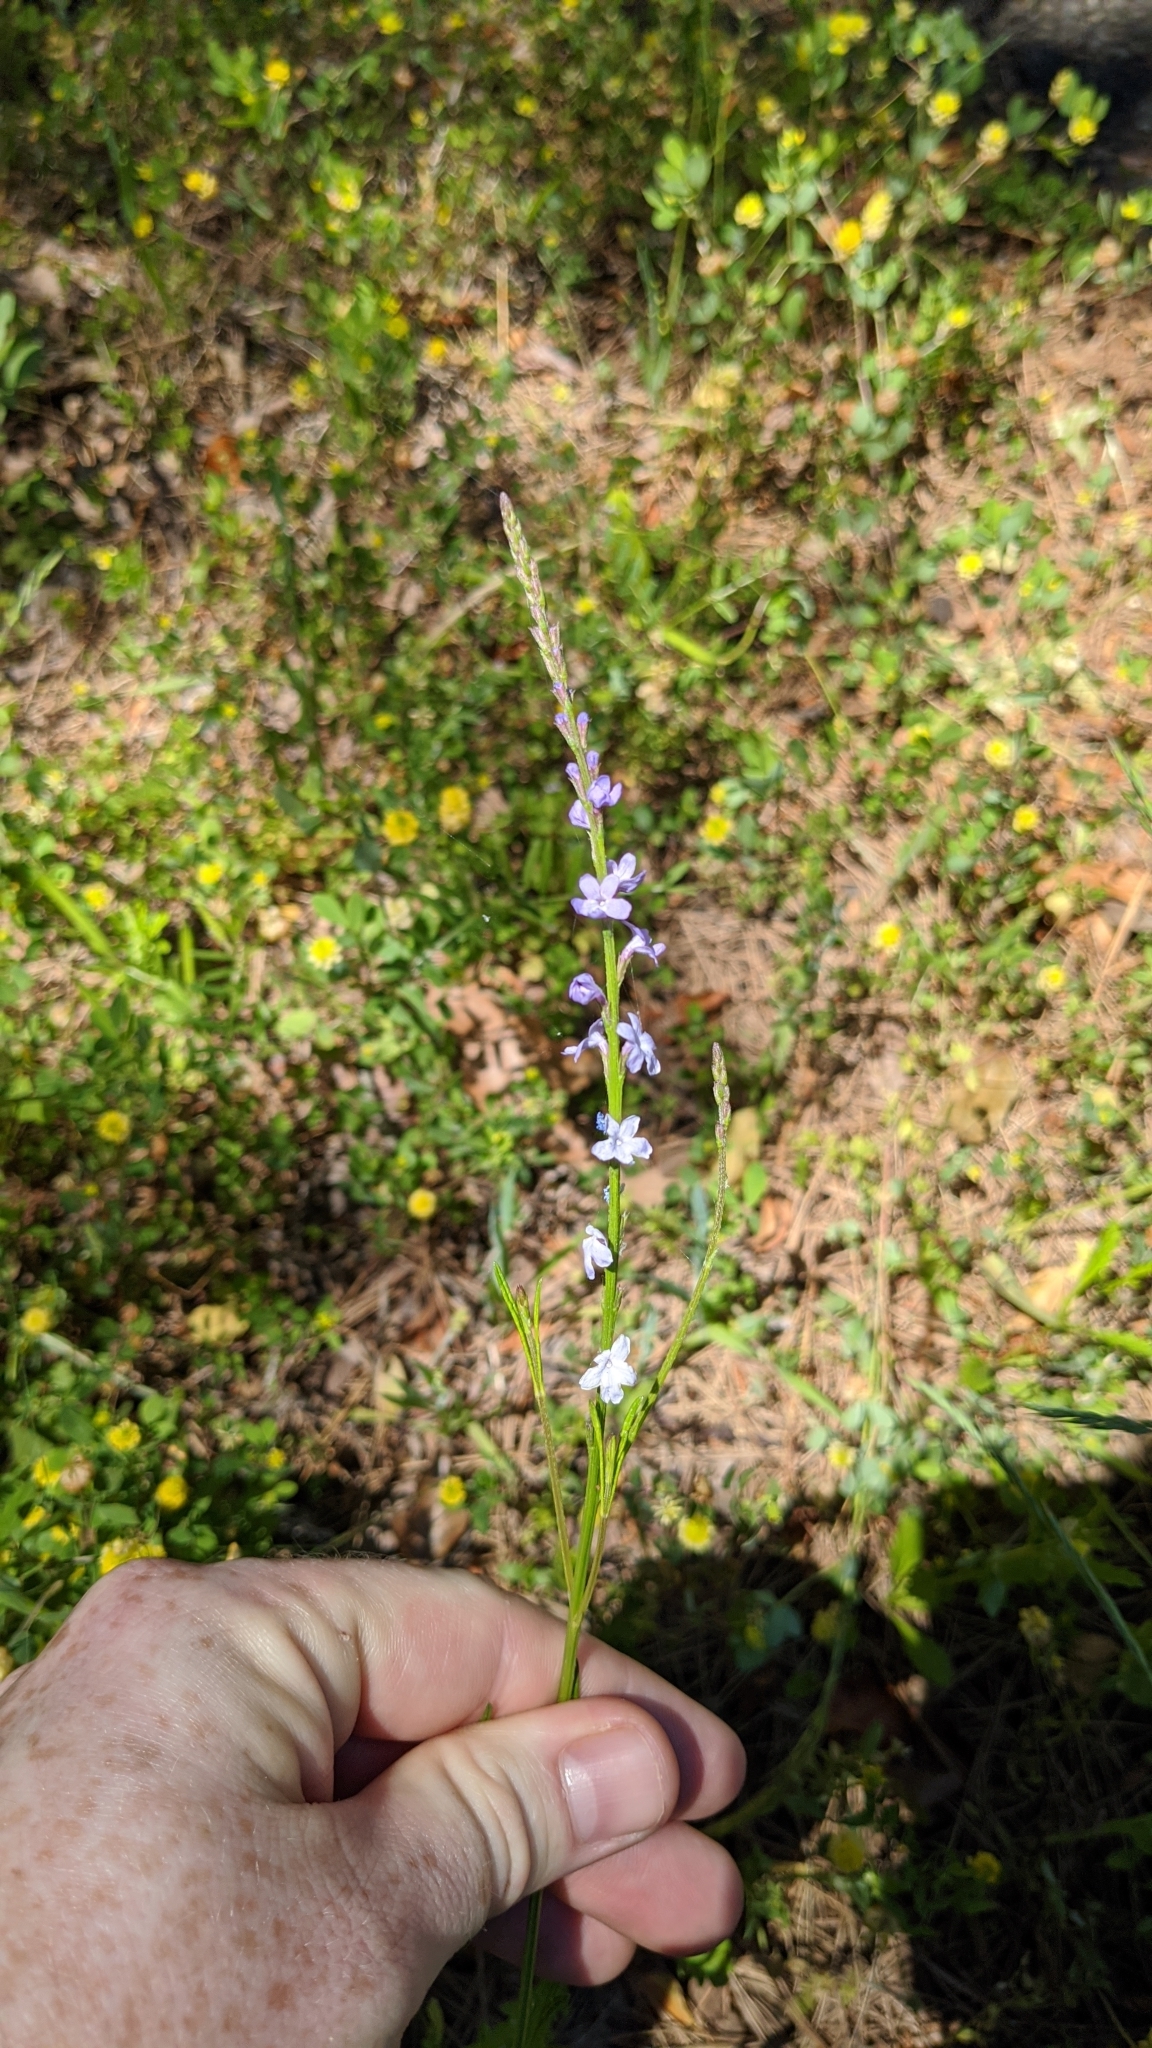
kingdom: Plantae
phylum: Tracheophyta
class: Magnoliopsida
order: Lamiales
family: Verbenaceae
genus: Verbena
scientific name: Verbena halei
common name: Texas vervain
